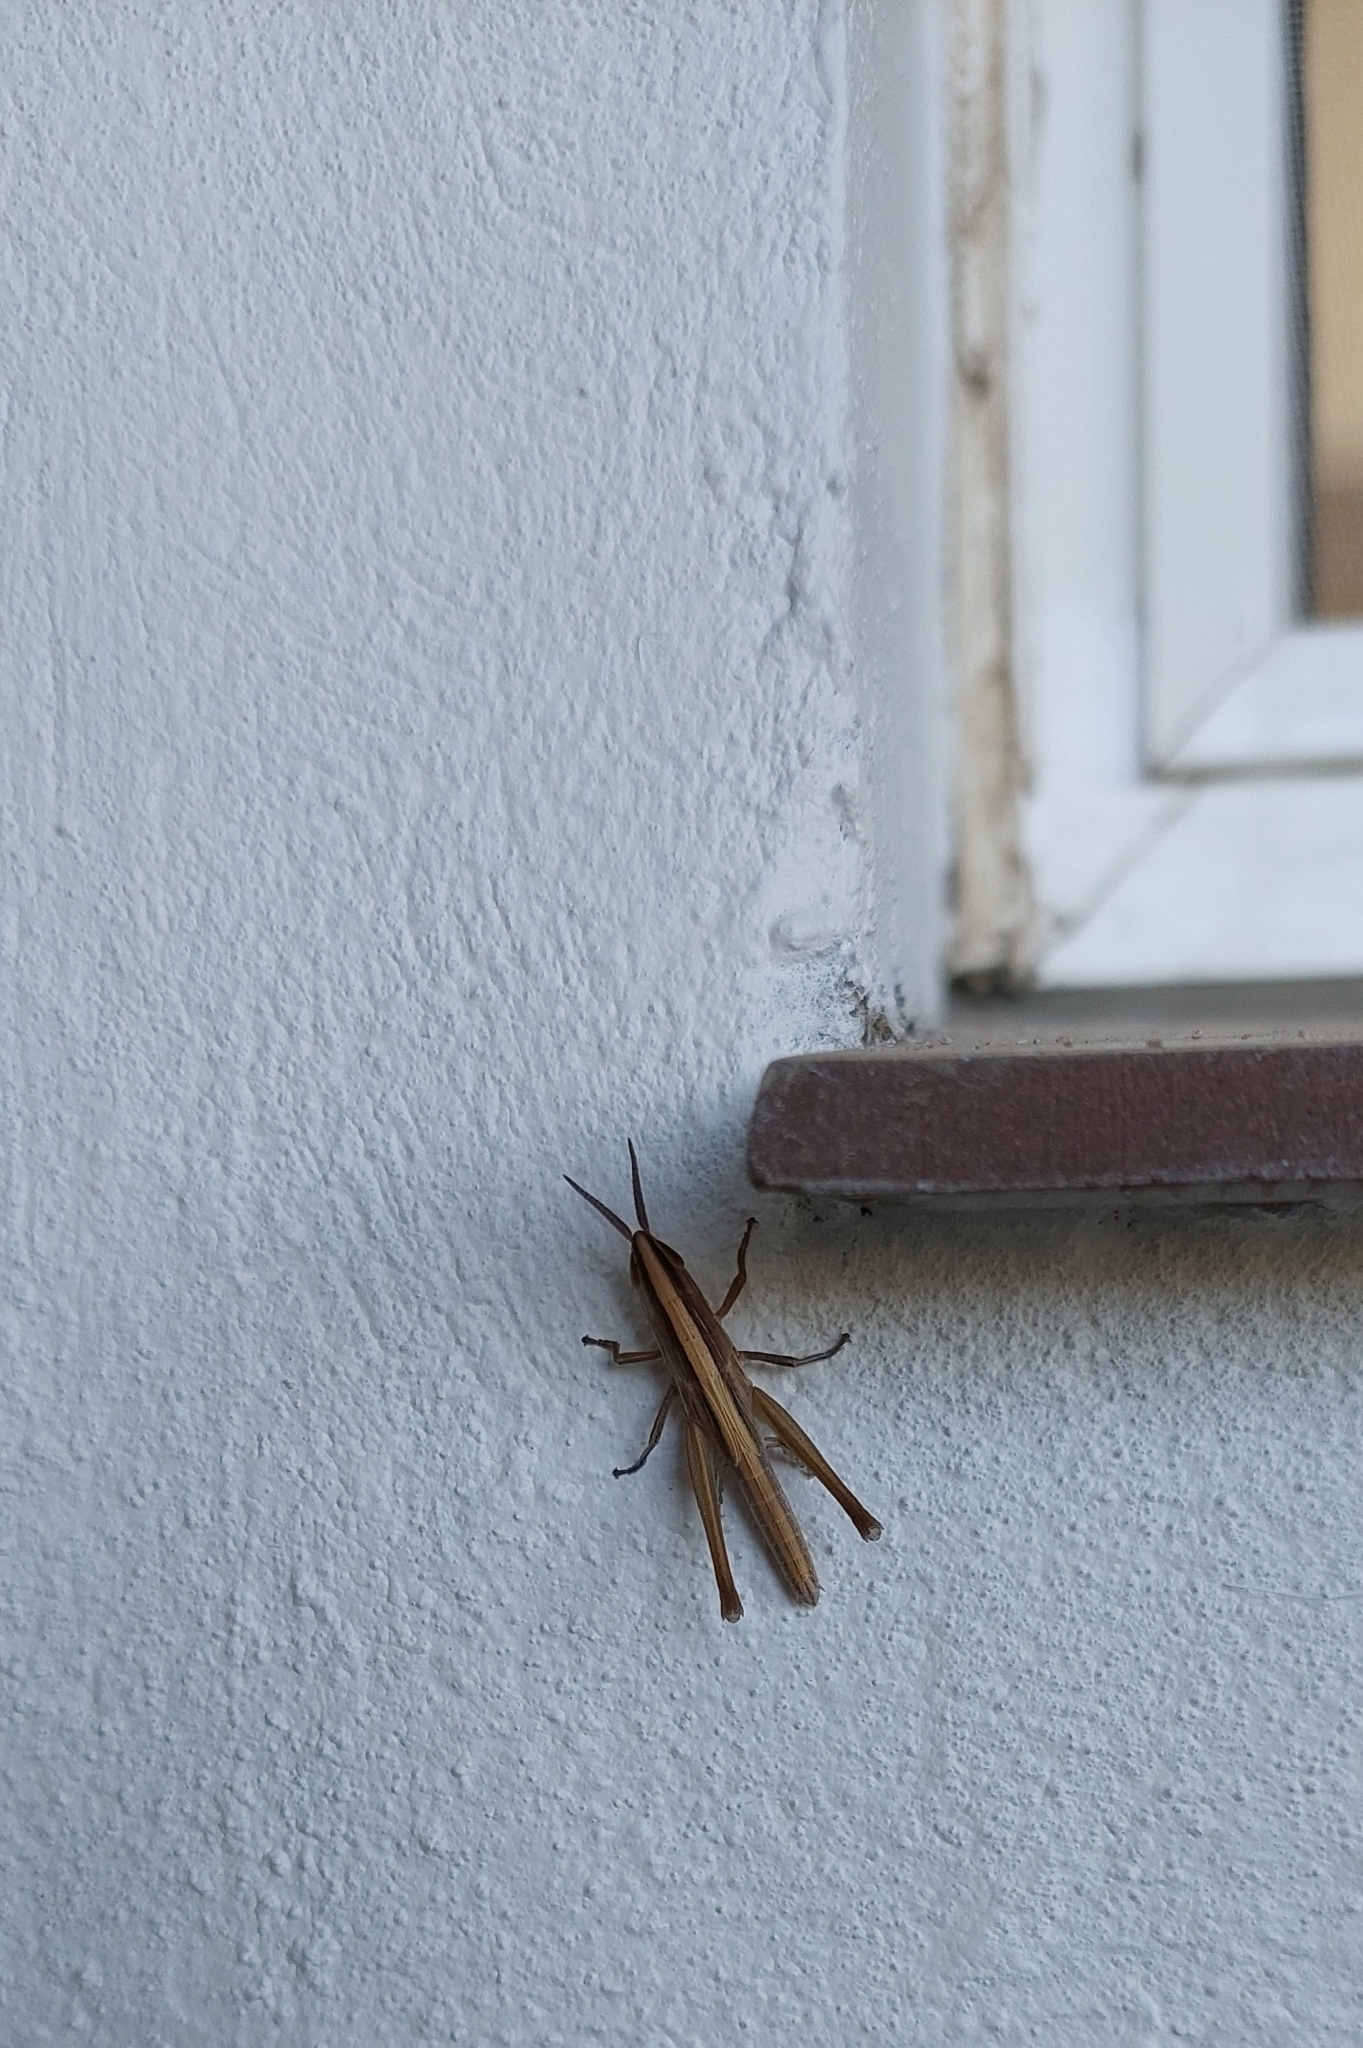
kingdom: Animalia
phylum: Arthropoda
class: Insecta
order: Orthoptera
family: Acrididae
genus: Sinipta
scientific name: Sinipta dalmani
